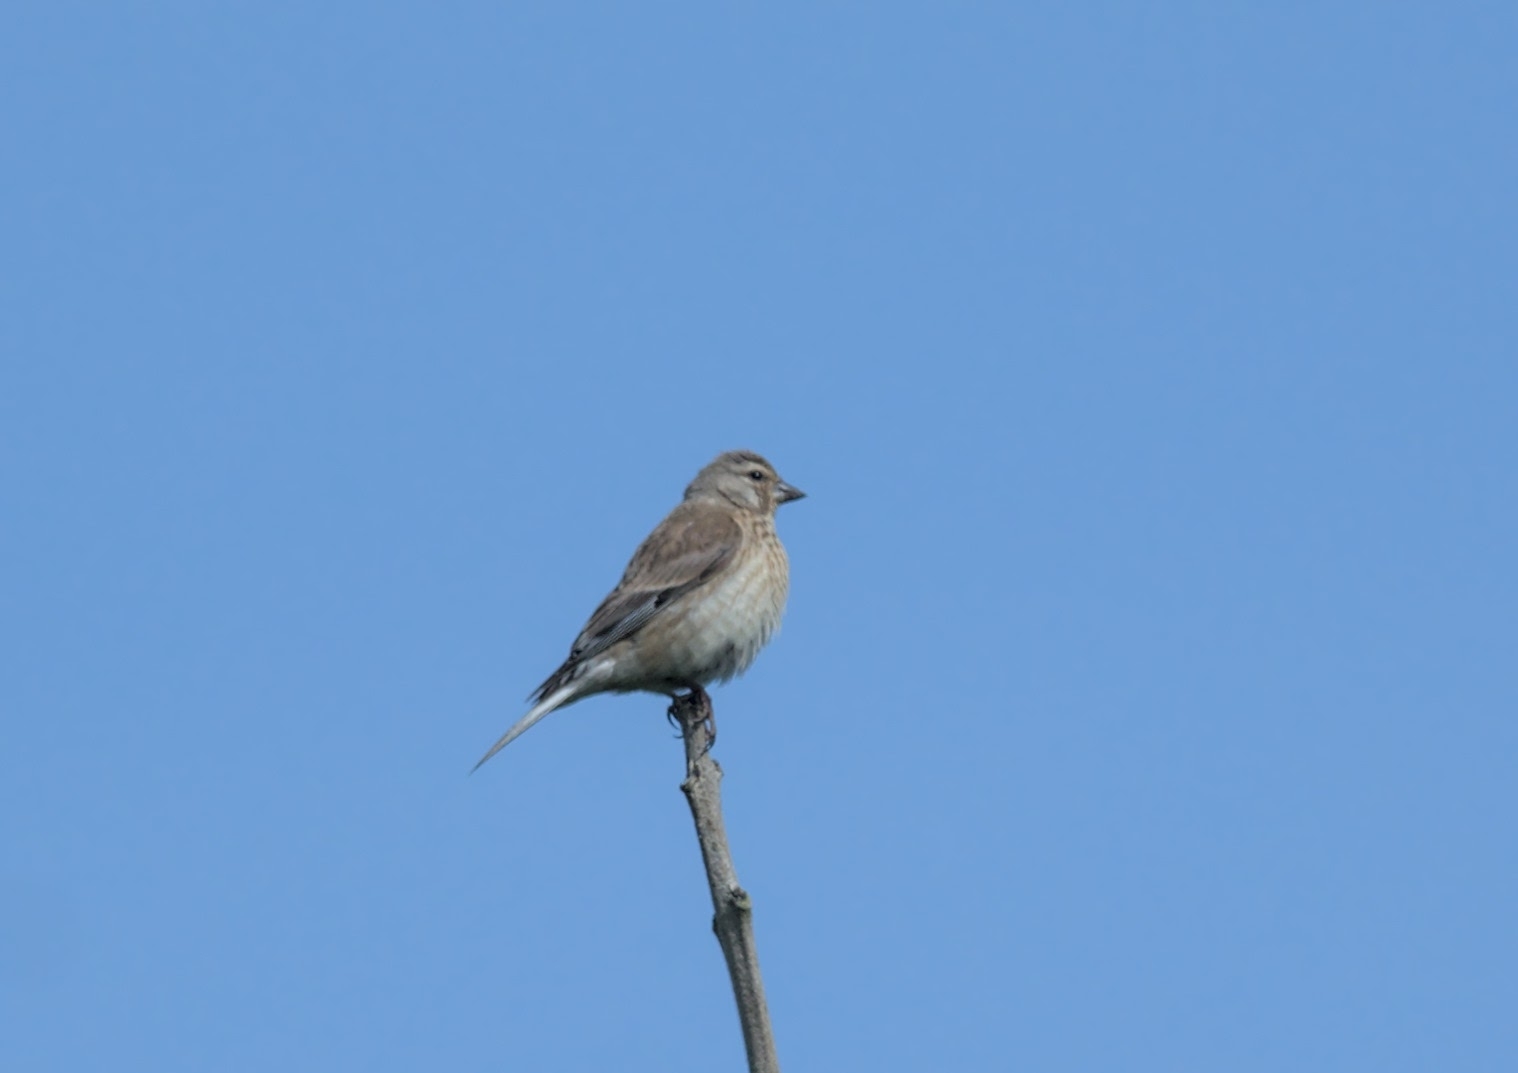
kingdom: Animalia
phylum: Chordata
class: Aves
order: Passeriformes
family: Fringillidae
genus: Linaria
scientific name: Linaria cannabina
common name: Common linnet
